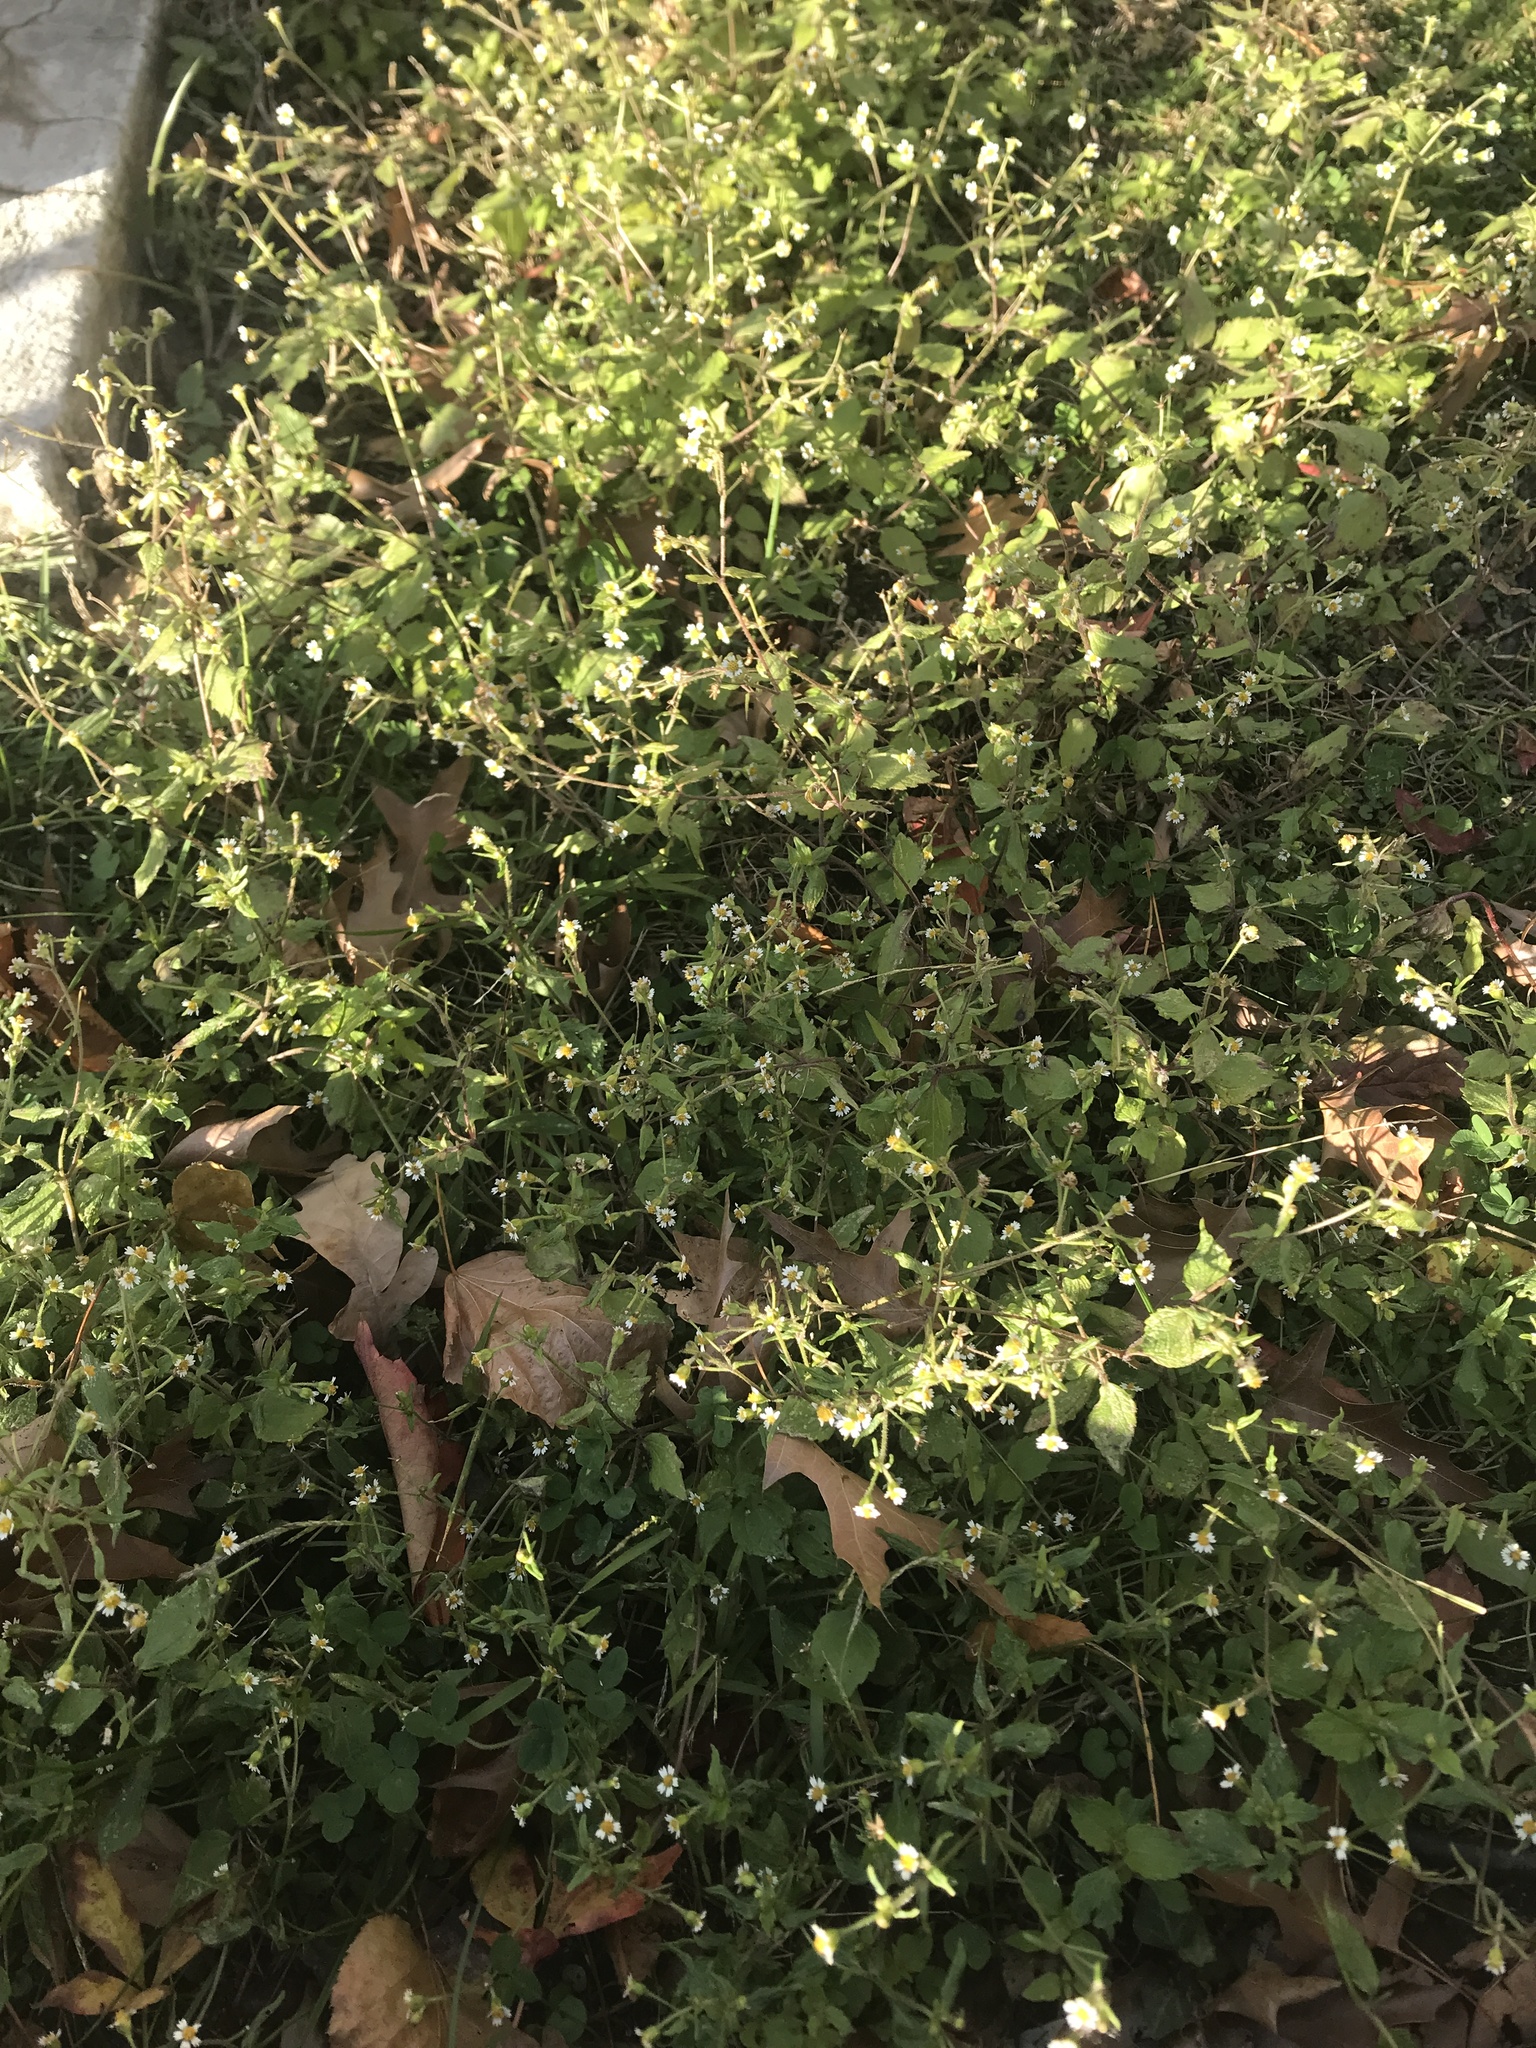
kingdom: Plantae
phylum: Tracheophyta
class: Magnoliopsida
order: Asterales
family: Asteraceae
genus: Galinsoga
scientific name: Galinsoga quadriradiata
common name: Shaggy soldier
